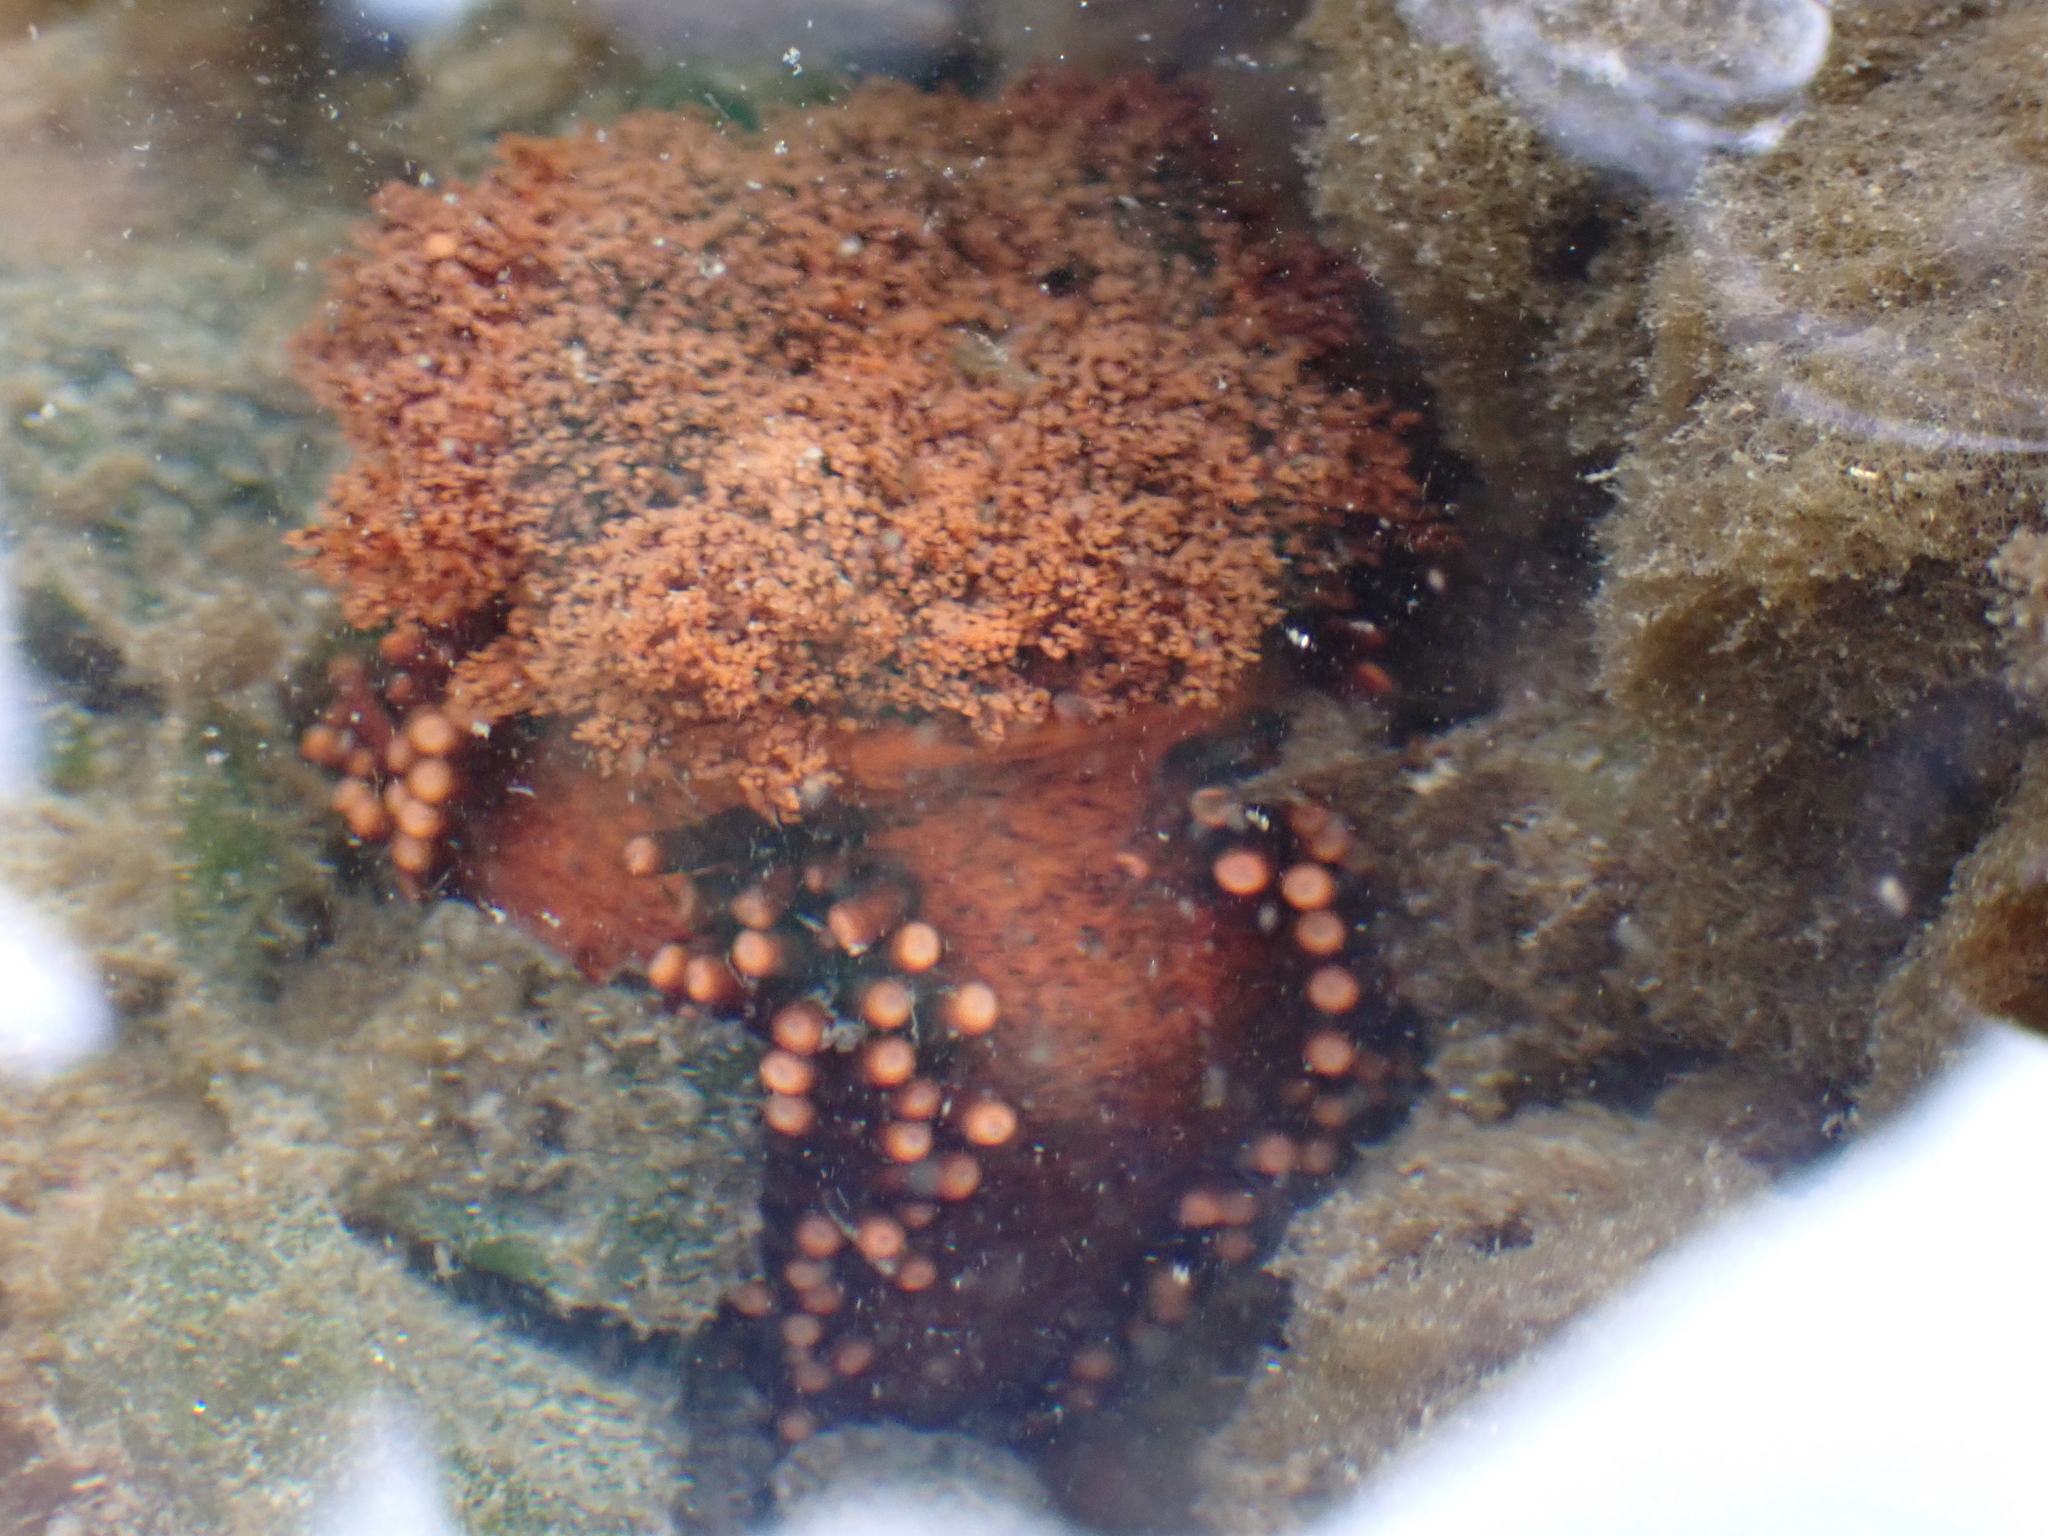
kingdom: Animalia
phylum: Echinodermata
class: Holothuroidea
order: Dendrochirotida
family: Cucumariidae
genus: Cucumaria
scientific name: Cucumaria miniata
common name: Orange sea cucumber
